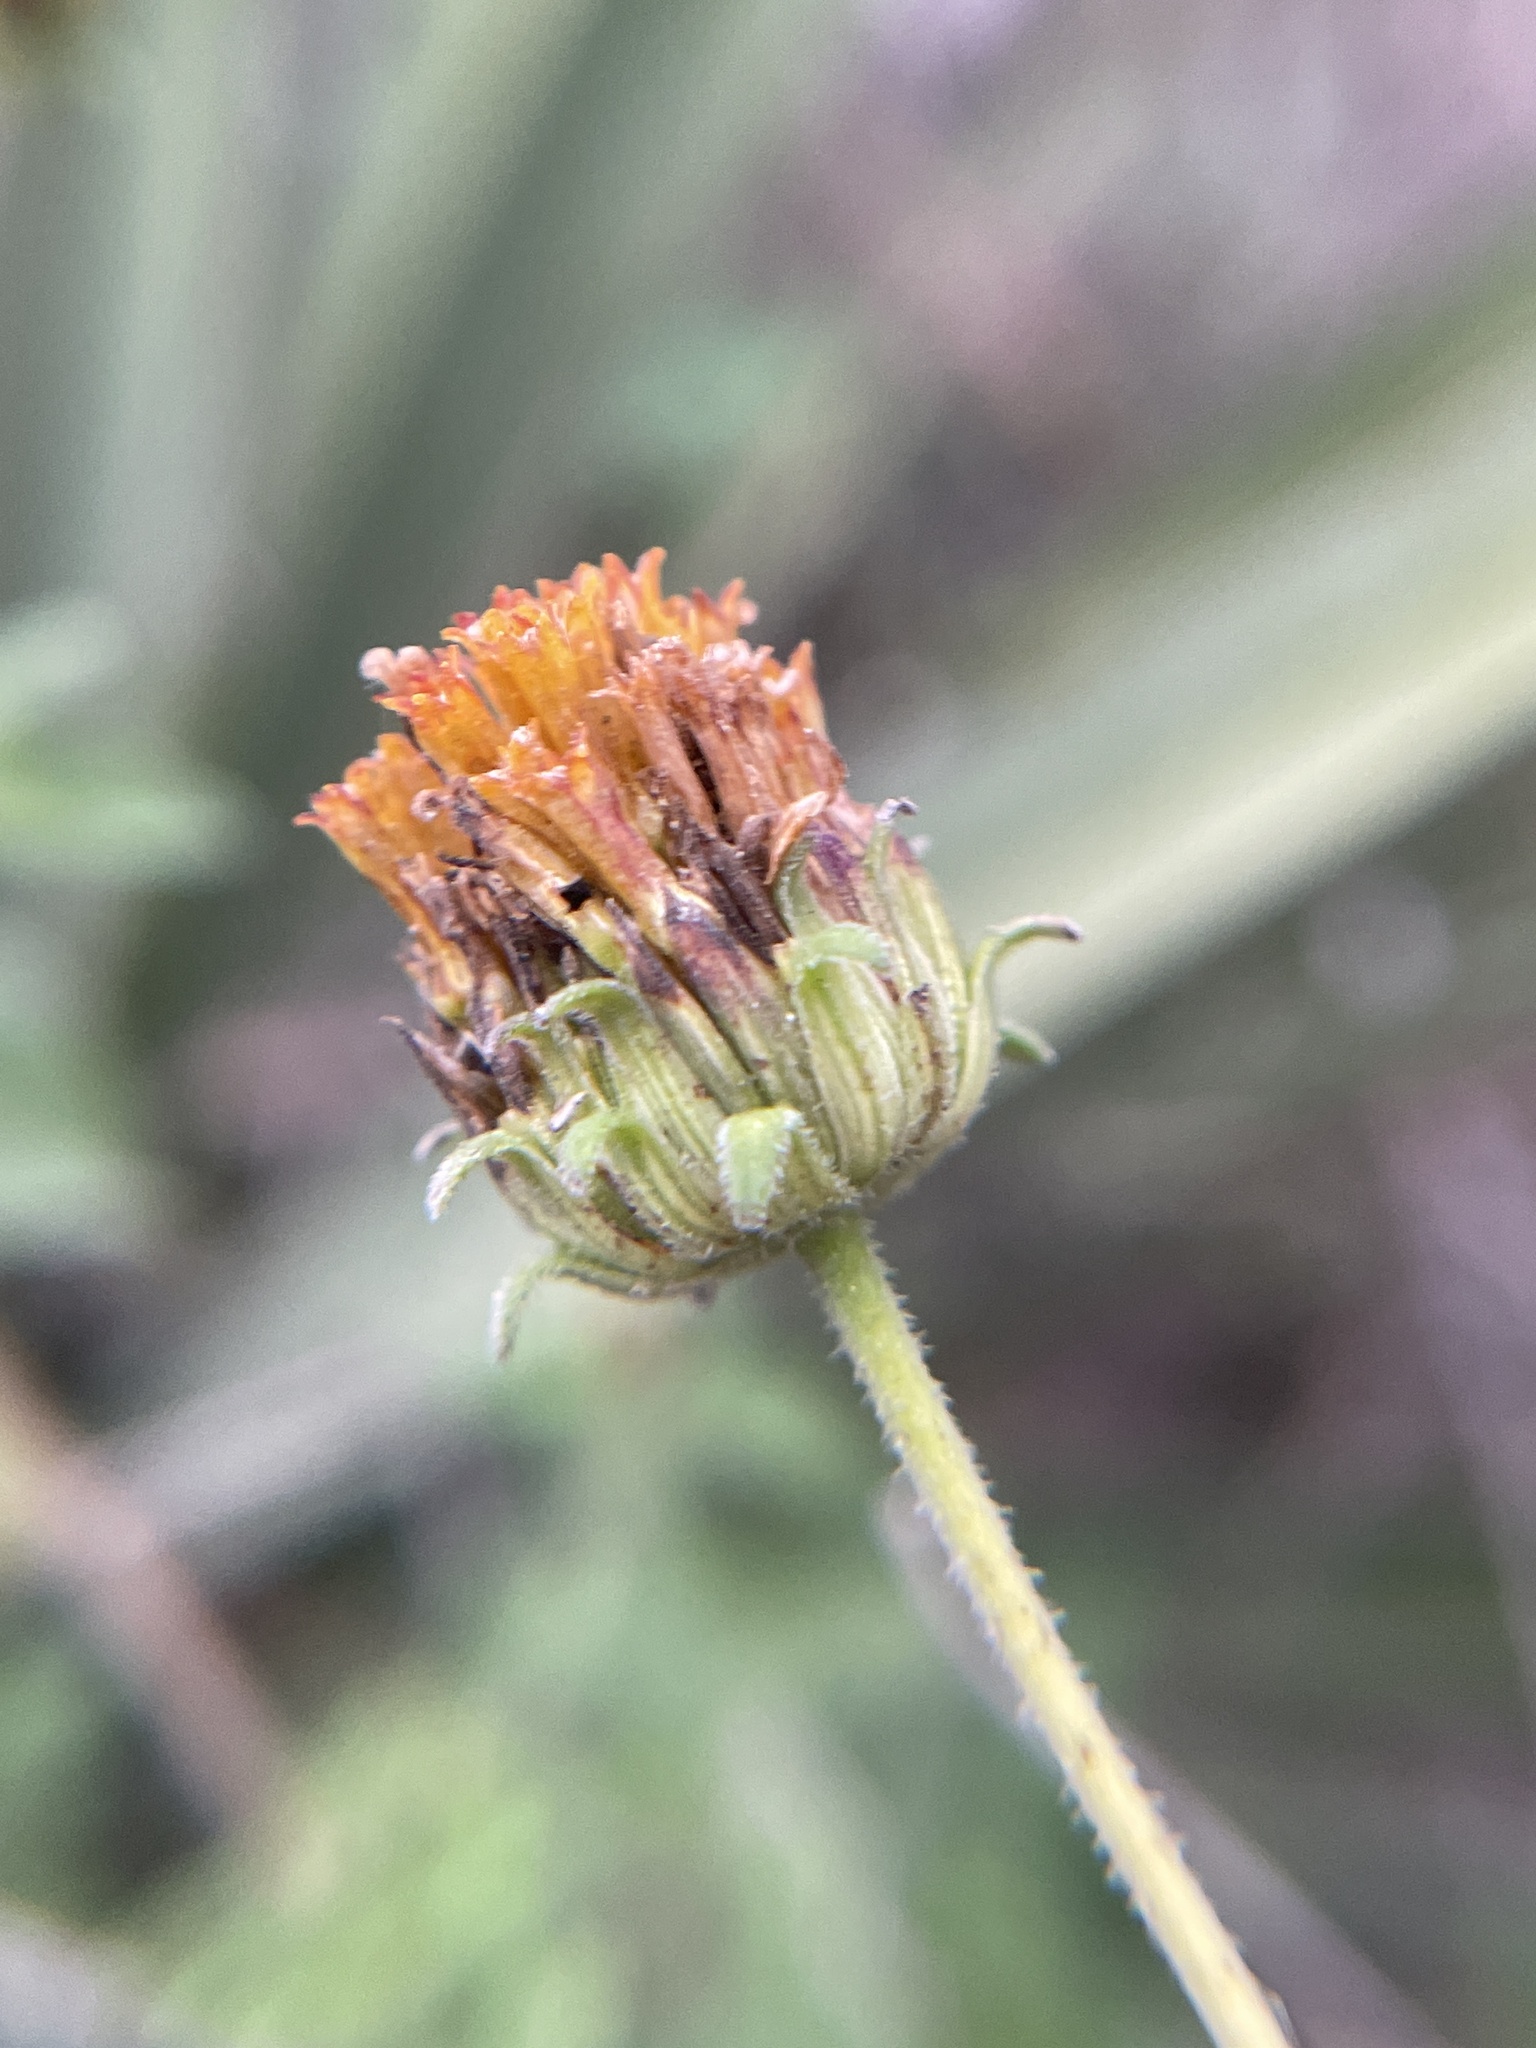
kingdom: Plantae
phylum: Tracheophyta
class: Magnoliopsida
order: Asterales
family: Asteraceae
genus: Simsia
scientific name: Simsia calva
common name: Awnless bush-sunflower
